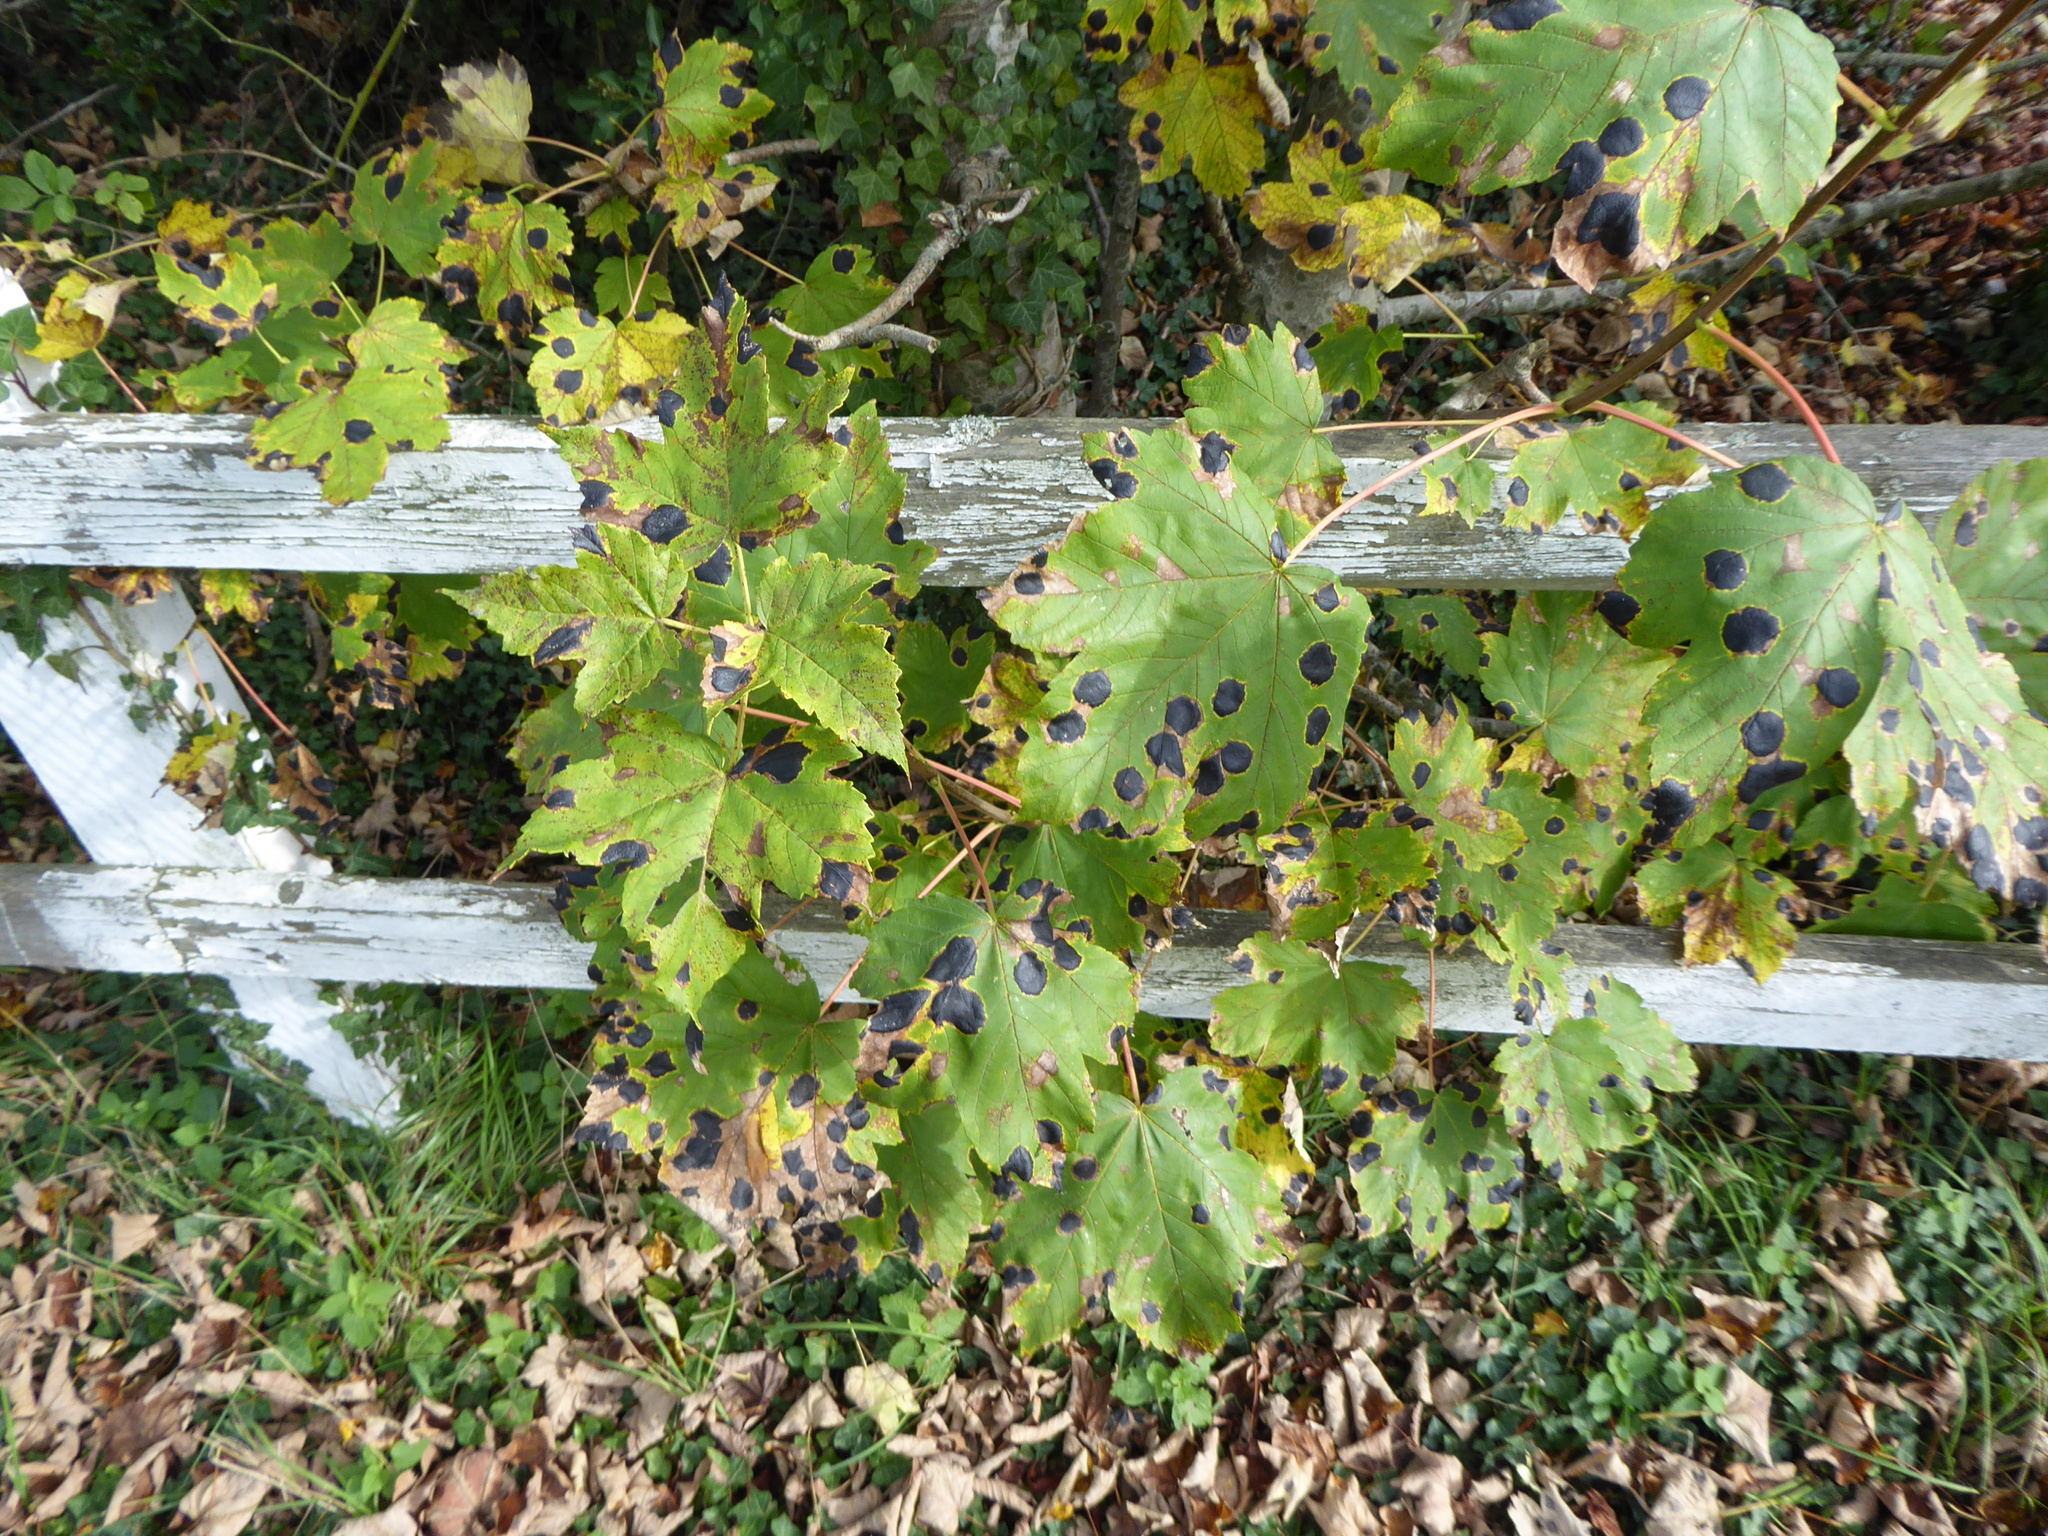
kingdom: Fungi
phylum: Ascomycota
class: Leotiomycetes
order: Rhytismatales
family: Rhytismataceae
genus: Rhytisma
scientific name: Rhytisma acerinum
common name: European tar spot
